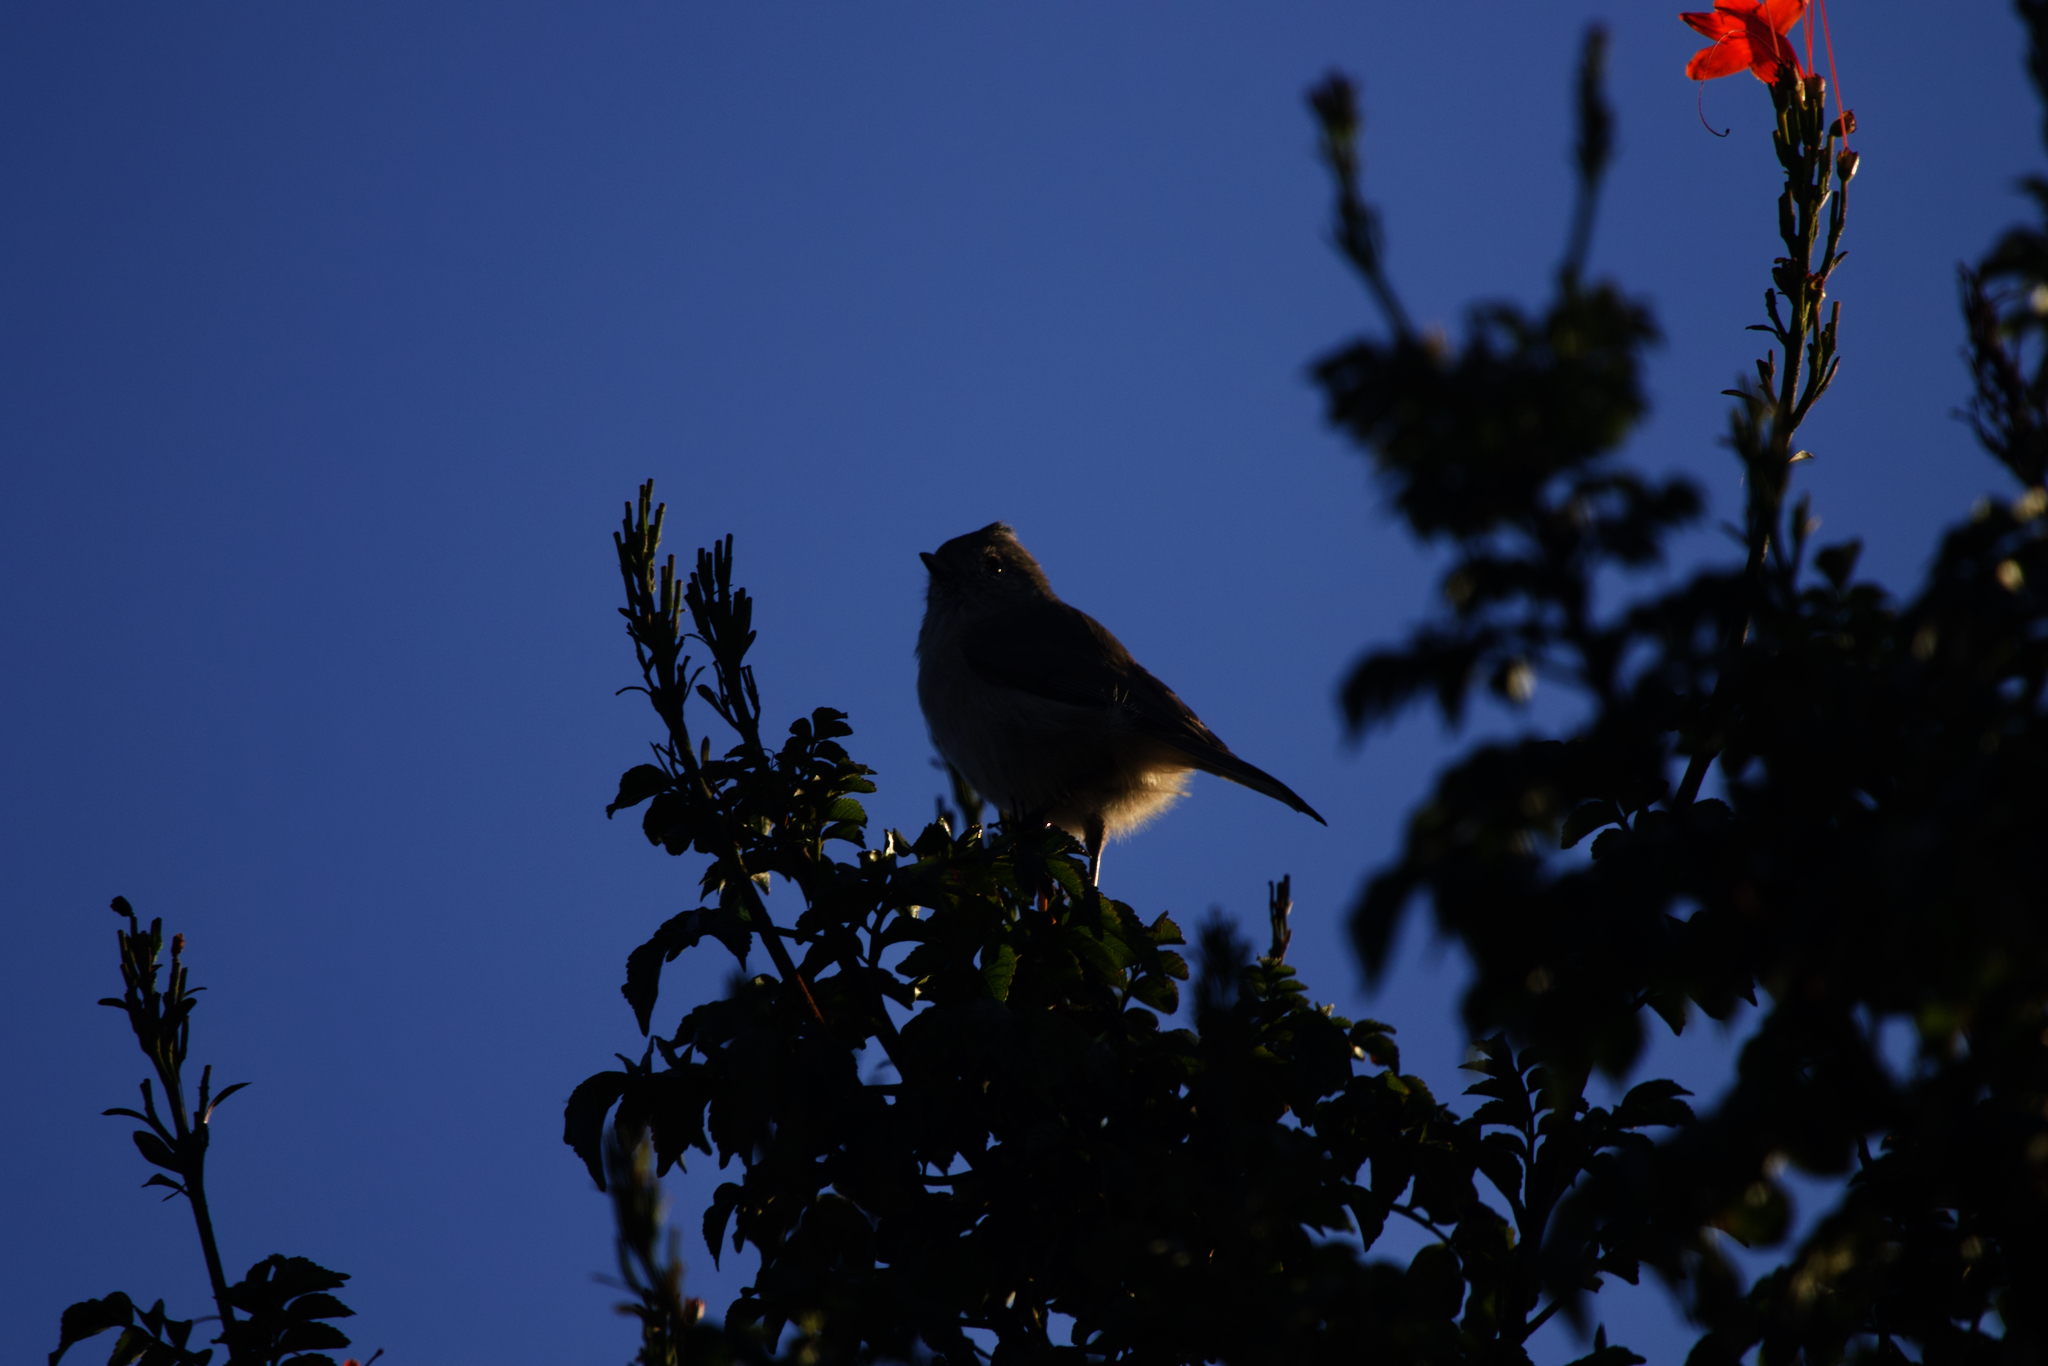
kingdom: Animalia
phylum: Chordata
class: Aves
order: Passeriformes
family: Paridae
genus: Baeolophus
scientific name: Baeolophus inornatus
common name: Oak titmouse
